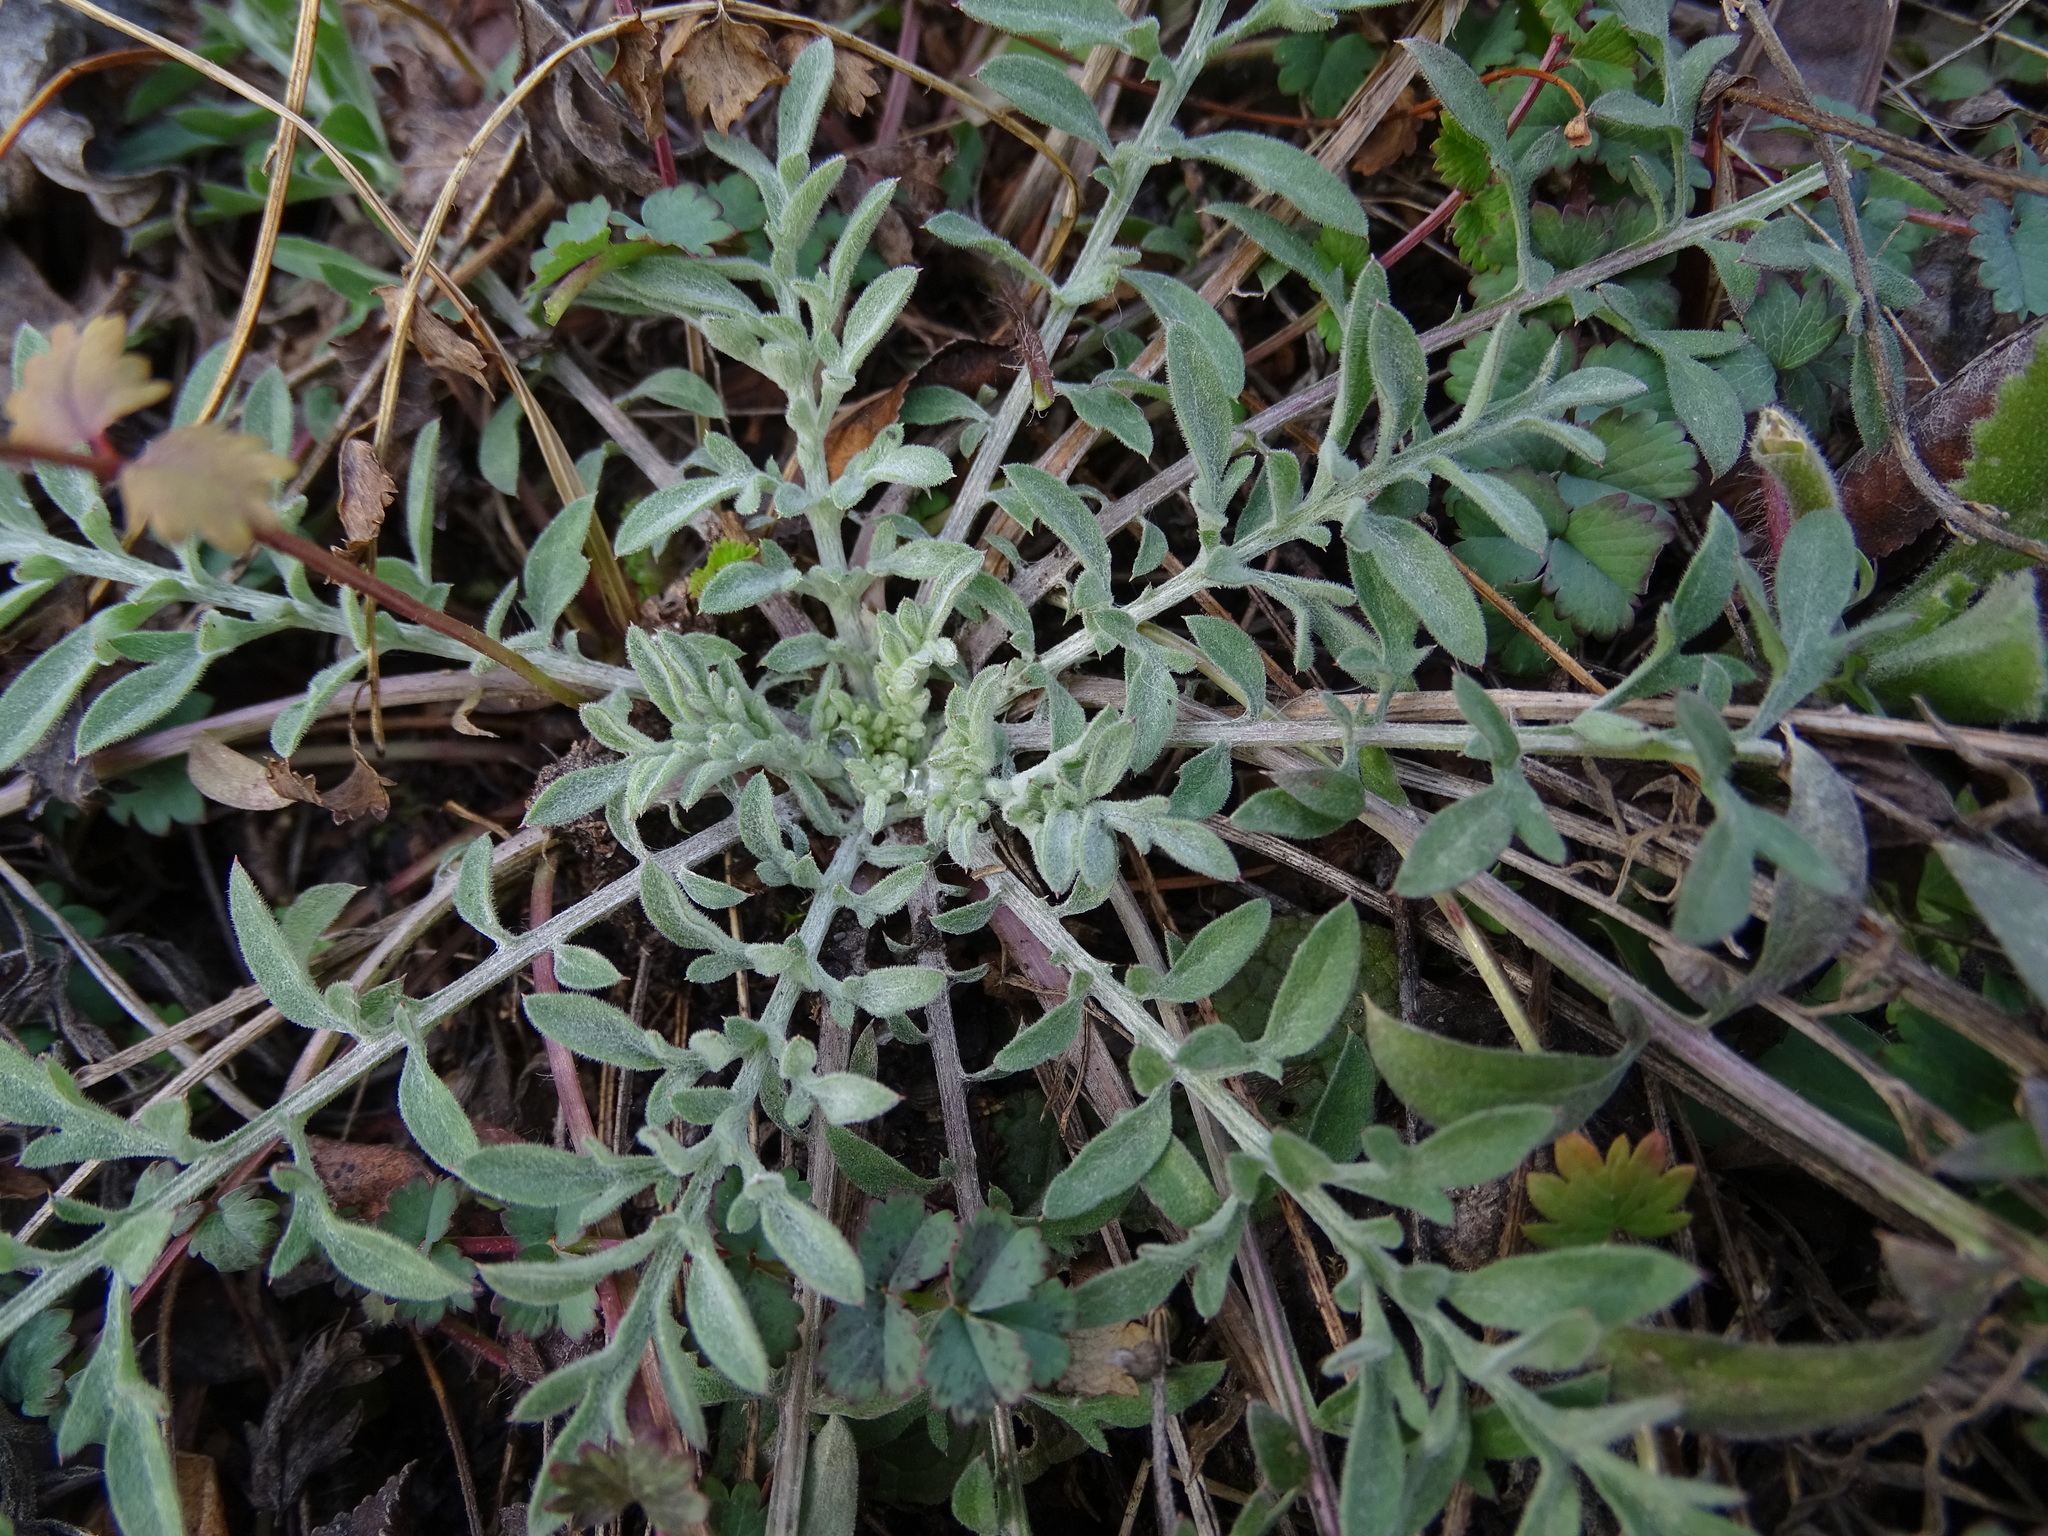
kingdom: Plantae
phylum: Tracheophyta
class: Magnoliopsida
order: Asterales
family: Asteraceae
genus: Centaurea
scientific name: Centaurea stoebe
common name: Spotted knapweed
